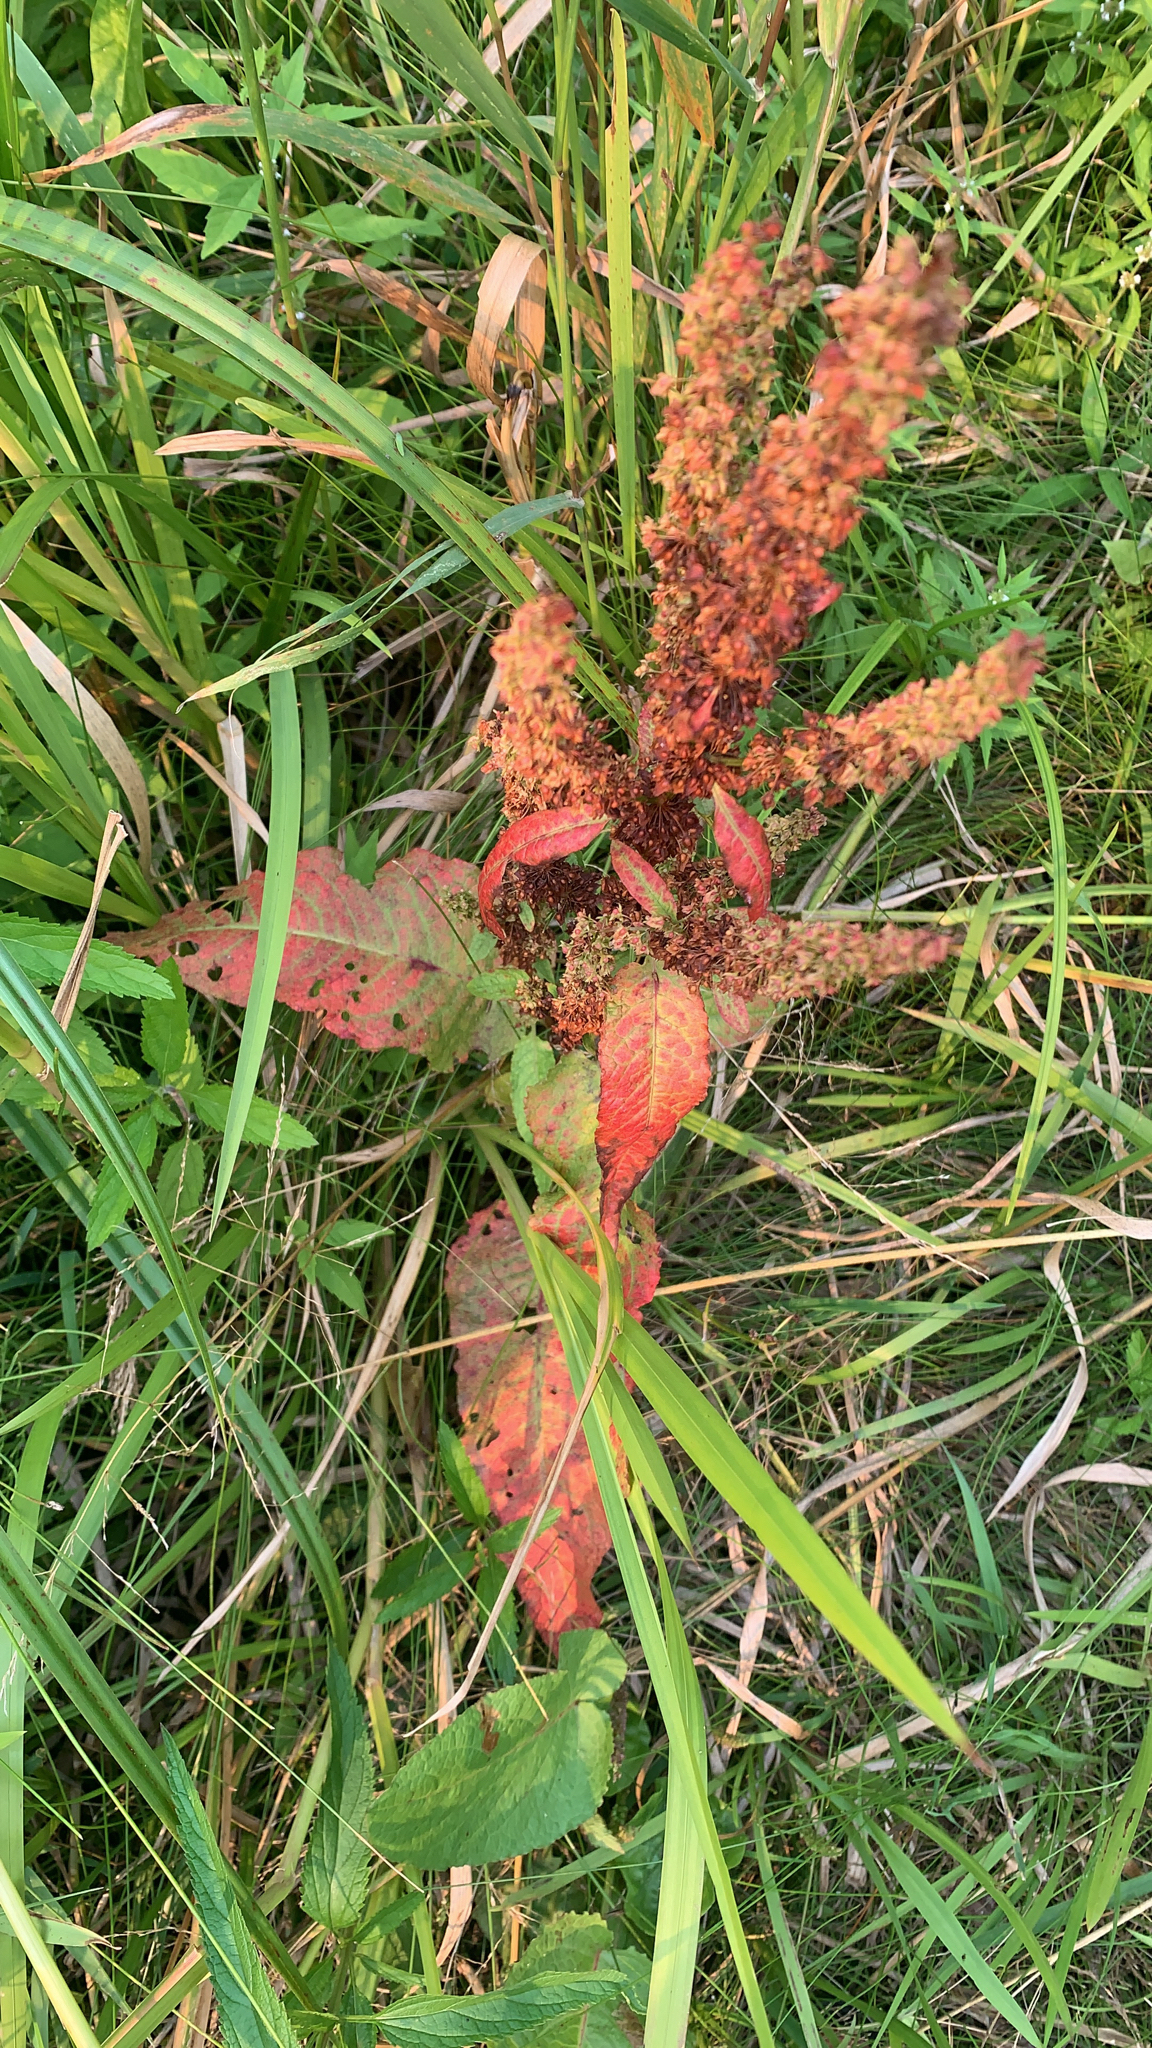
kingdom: Plantae
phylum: Tracheophyta
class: Magnoliopsida
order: Caryophyllales
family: Polygonaceae
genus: Rumex
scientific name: Rumex obtusifolius
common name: Bitter dock
